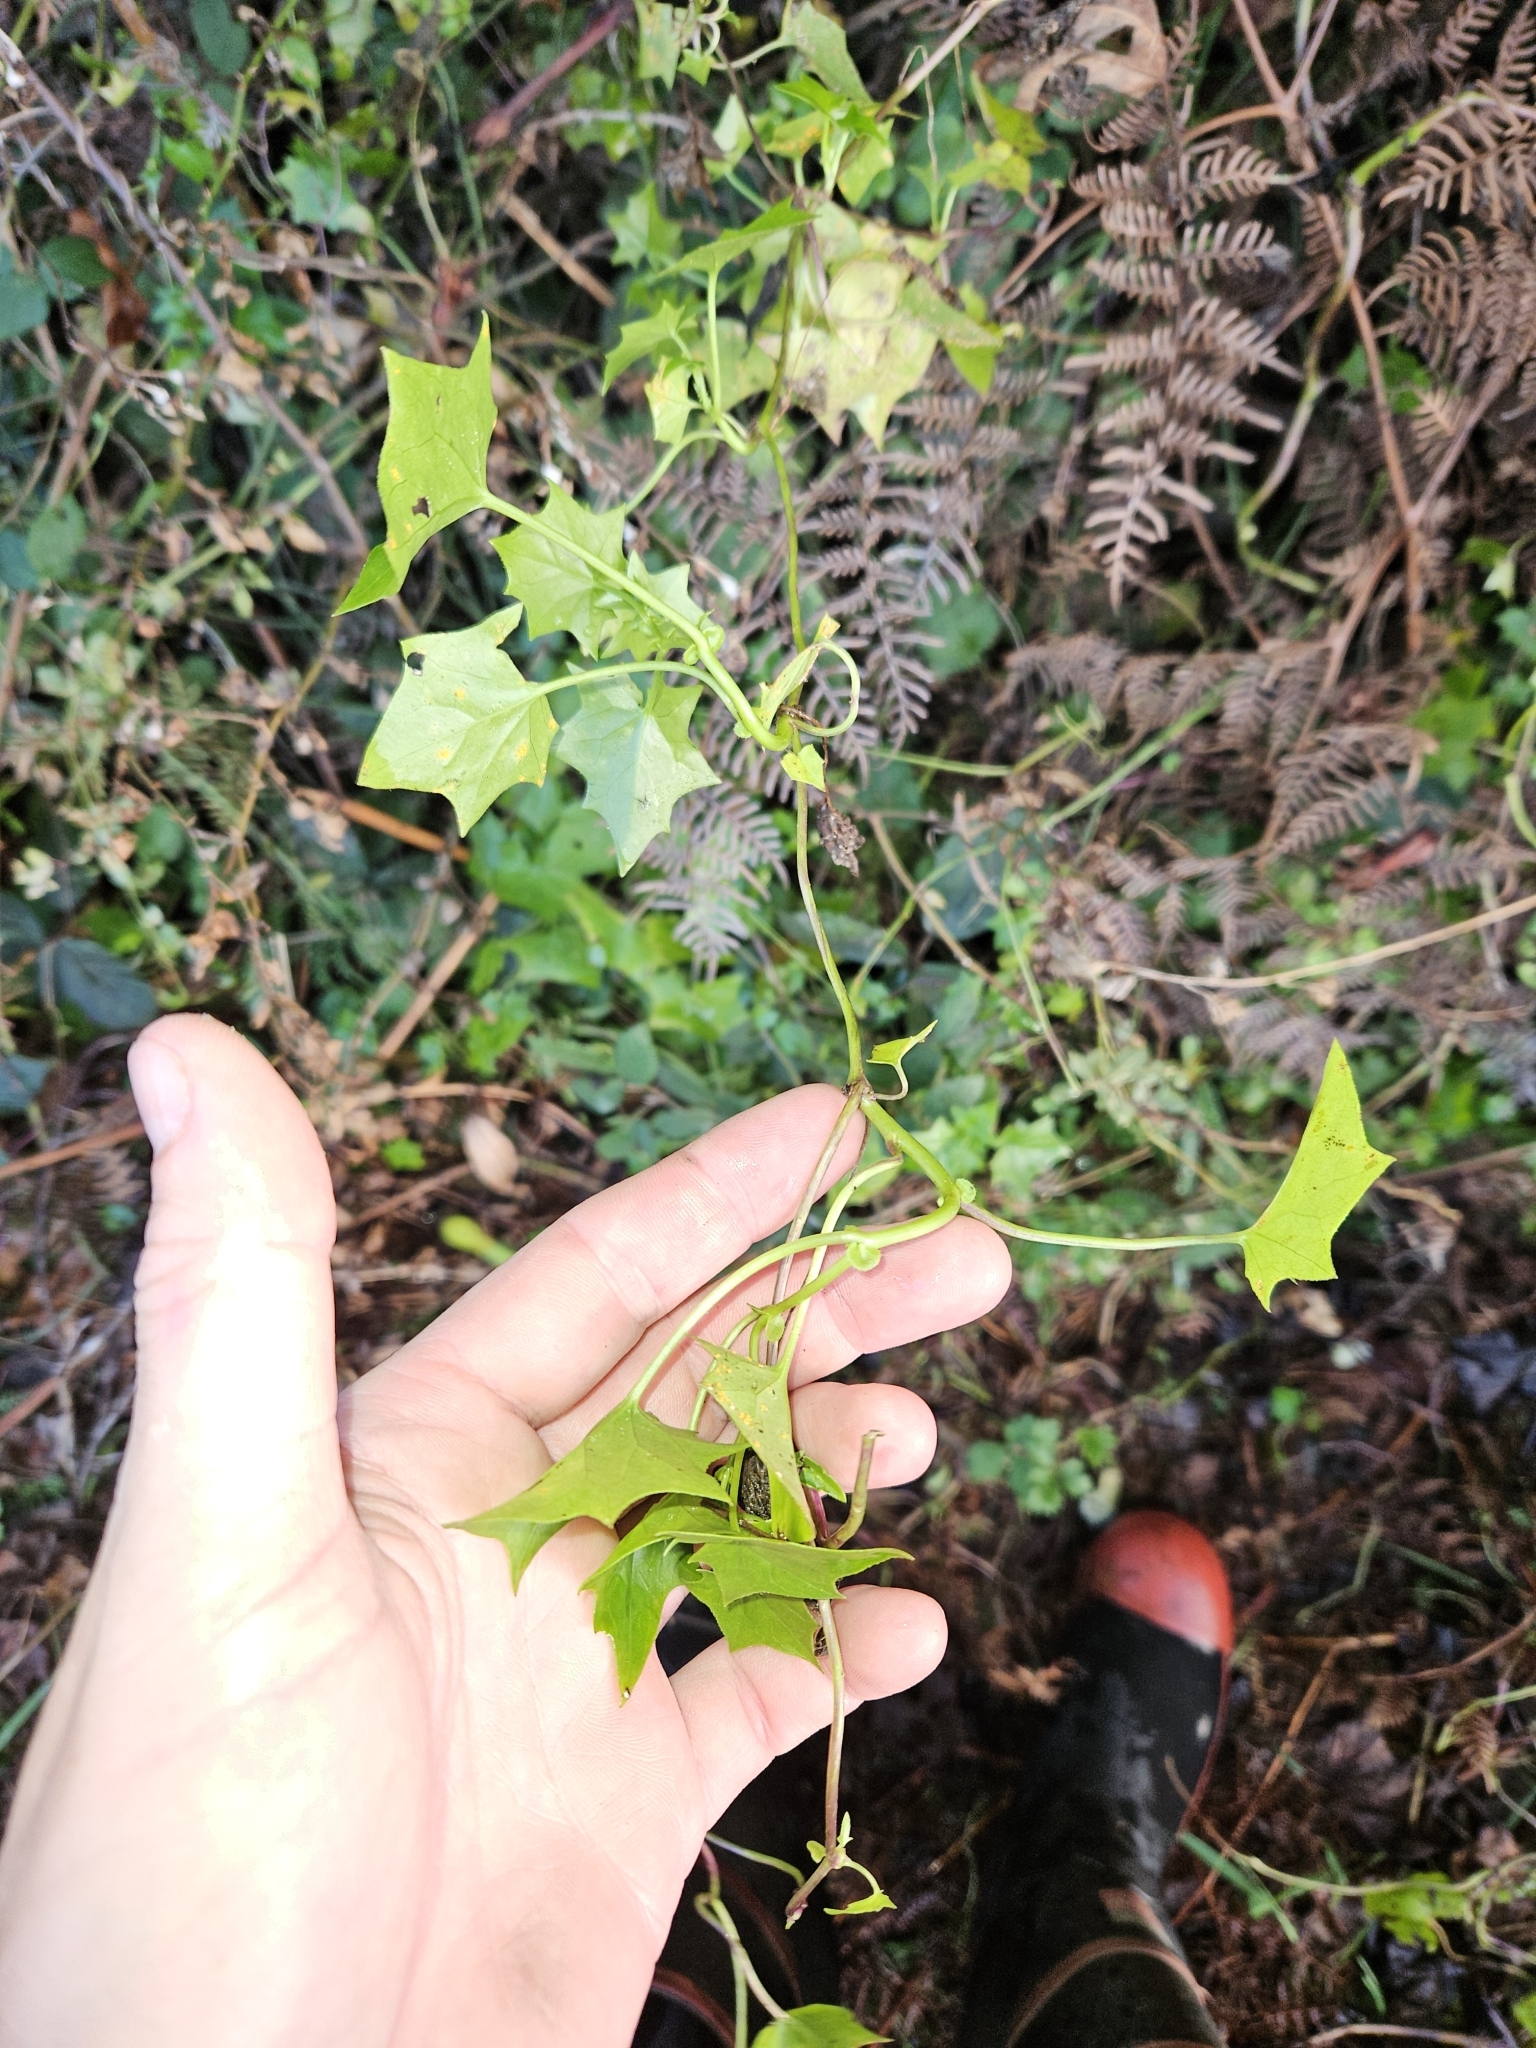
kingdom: Plantae
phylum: Tracheophyta
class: Magnoliopsida
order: Asterales
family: Asteraceae
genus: Delairea
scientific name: Delairea odorata
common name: Cape-ivy
